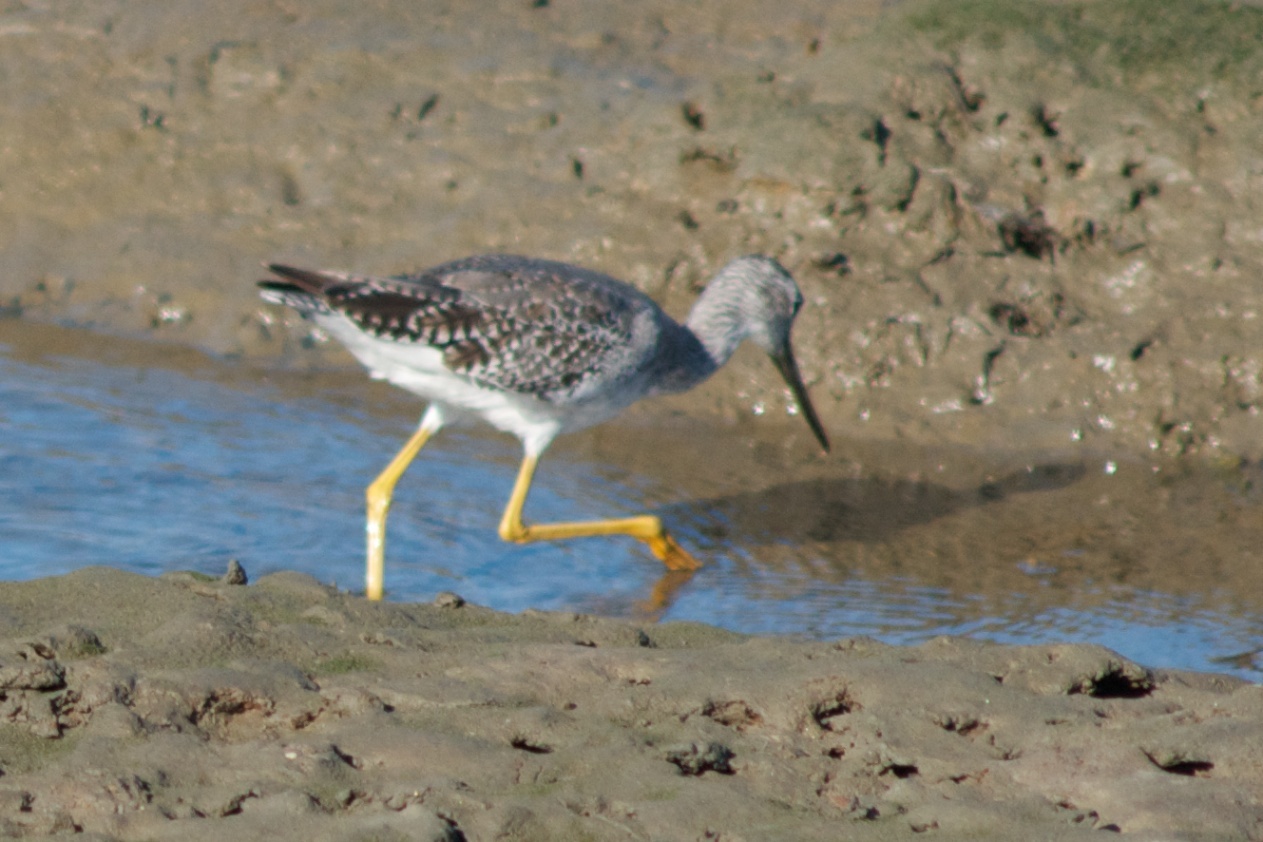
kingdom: Animalia
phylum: Chordata
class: Aves
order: Charadriiformes
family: Scolopacidae
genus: Tringa
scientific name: Tringa melanoleuca
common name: Greater yellowlegs
